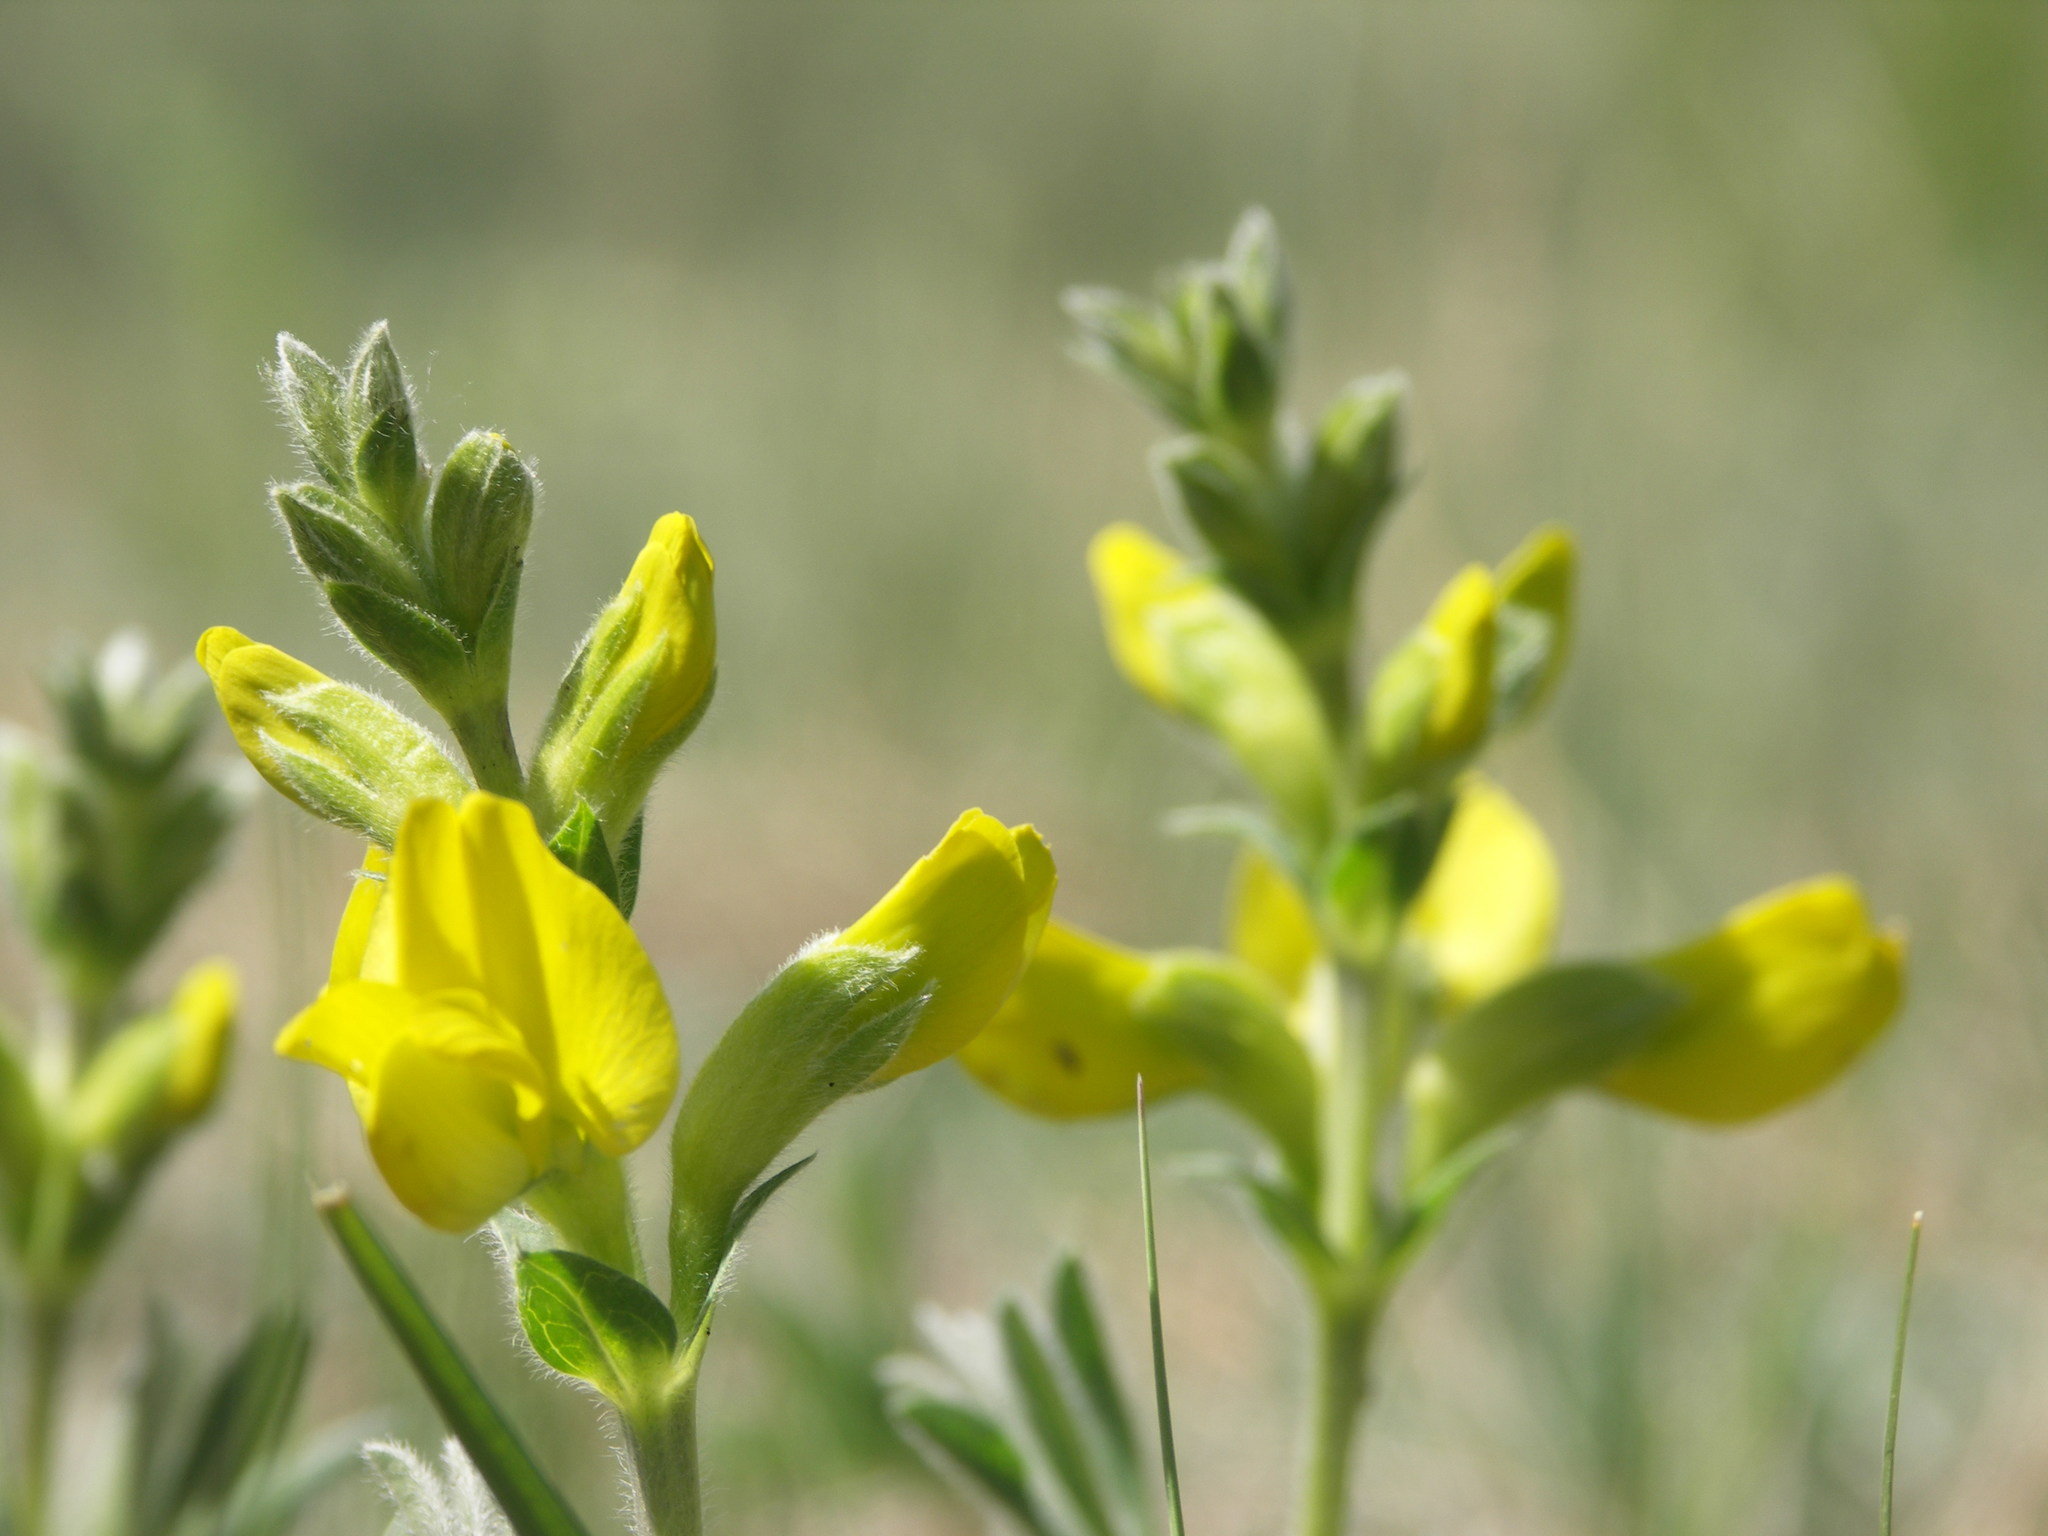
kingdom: Plantae
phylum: Tracheophyta
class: Magnoliopsida
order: Fabales
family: Fabaceae
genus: Thermopsis
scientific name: Thermopsis lanceolata
